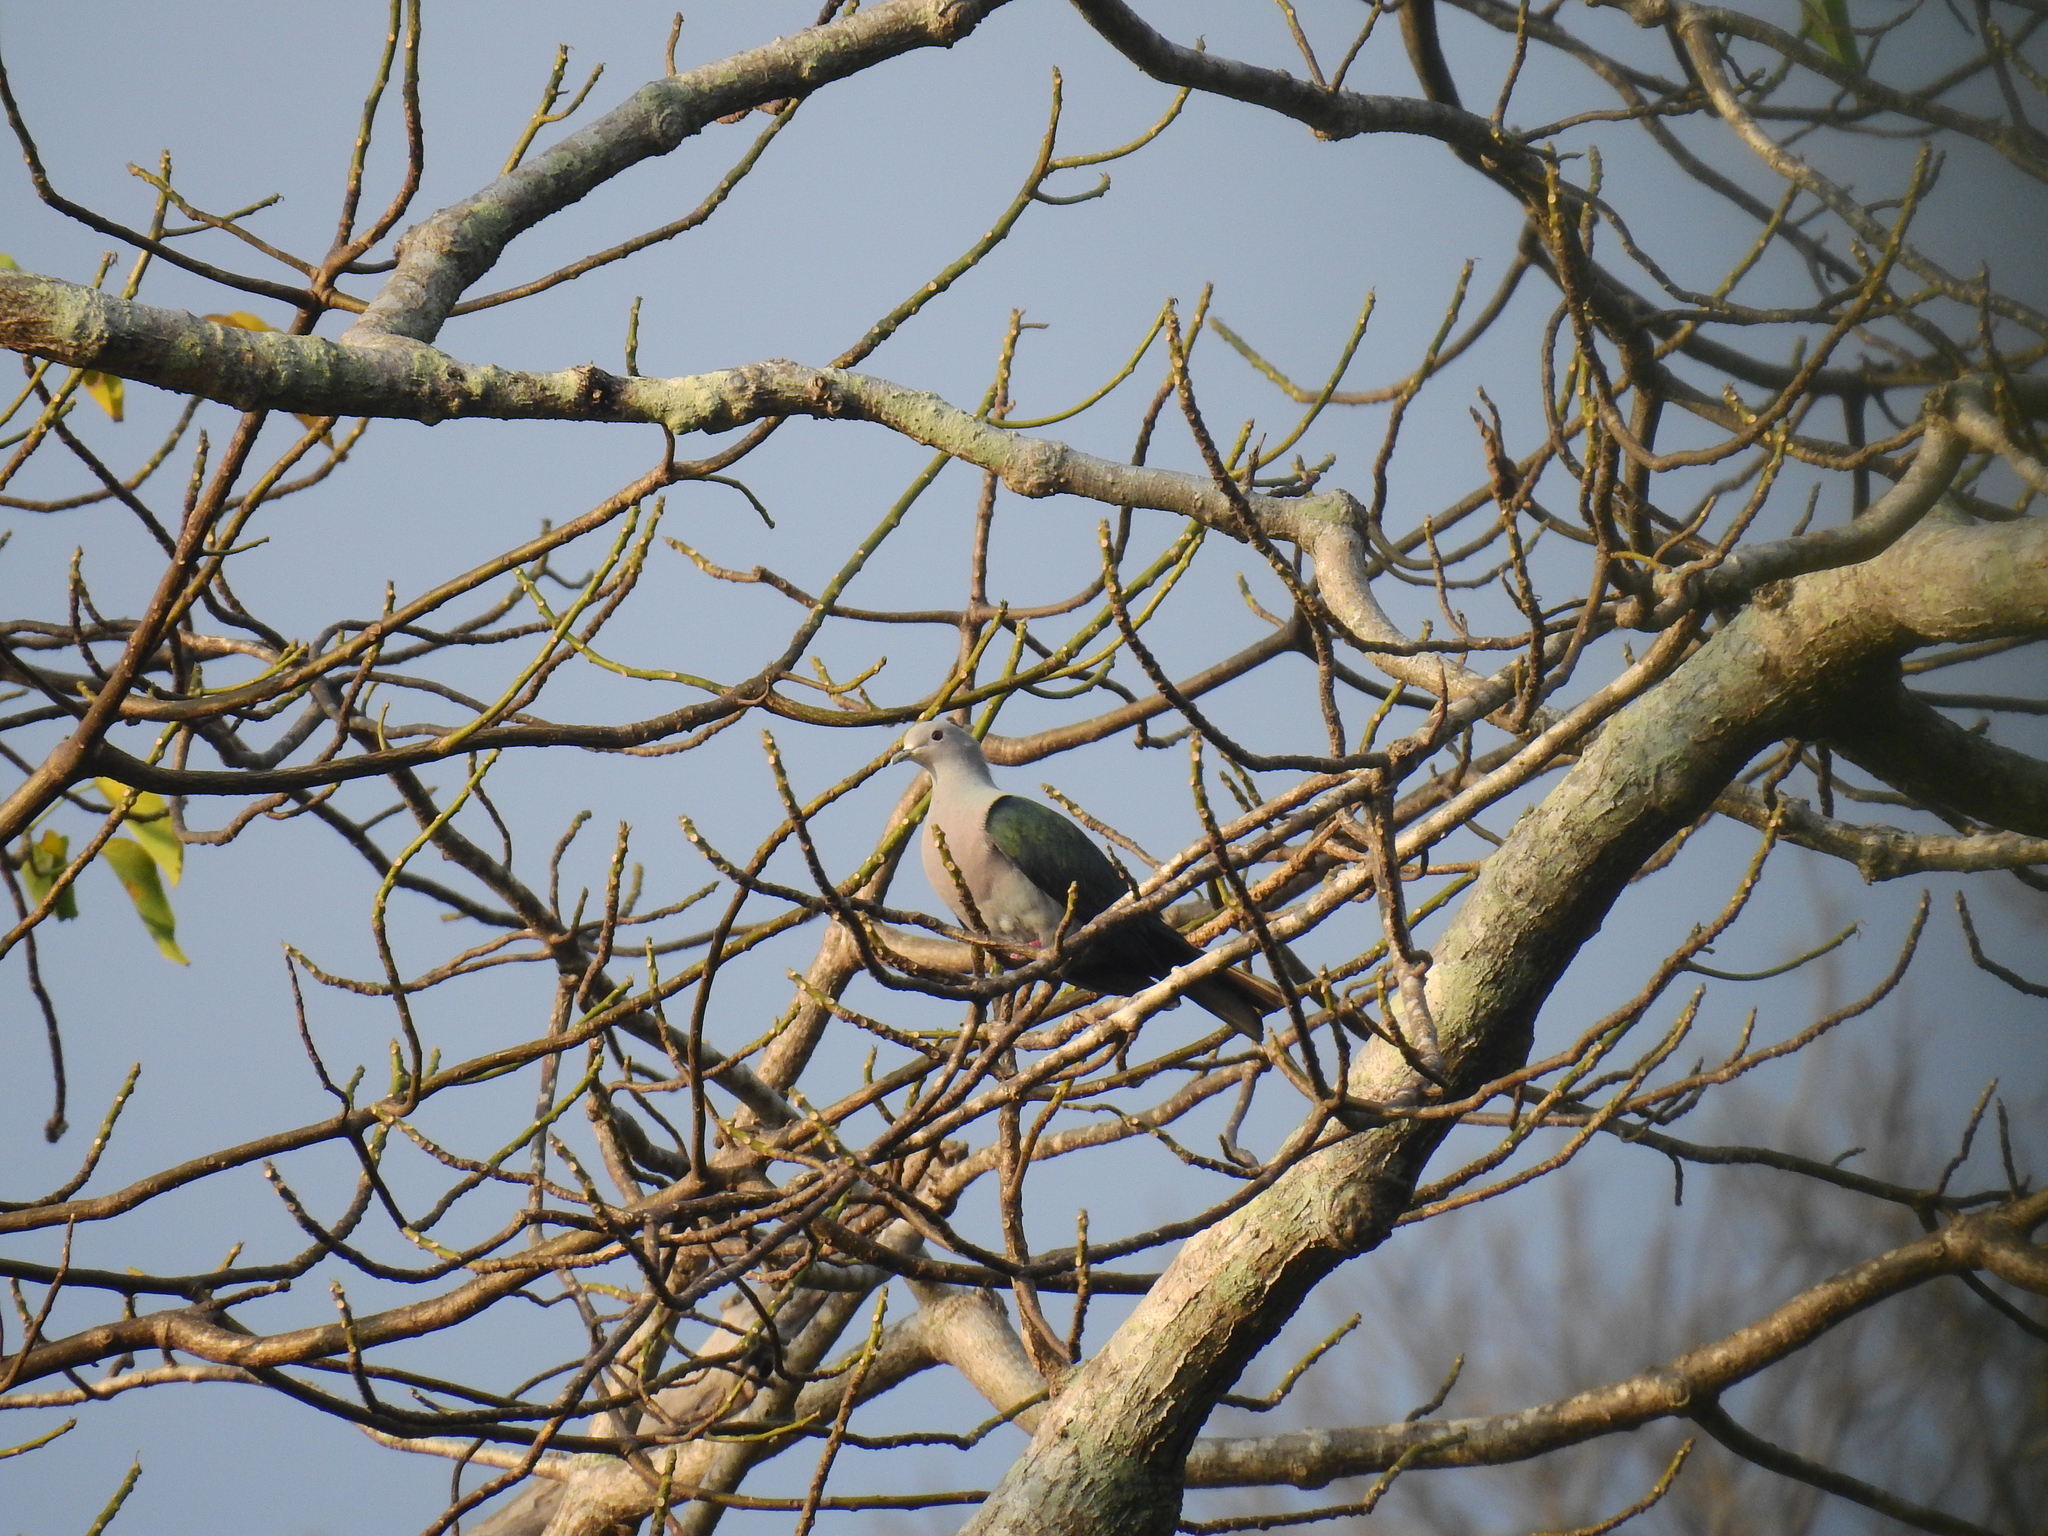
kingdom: Animalia
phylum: Chordata
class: Aves
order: Columbiformes
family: Columbidae
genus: Ducula
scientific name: Ducula aenea
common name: Green imperial pigeon
